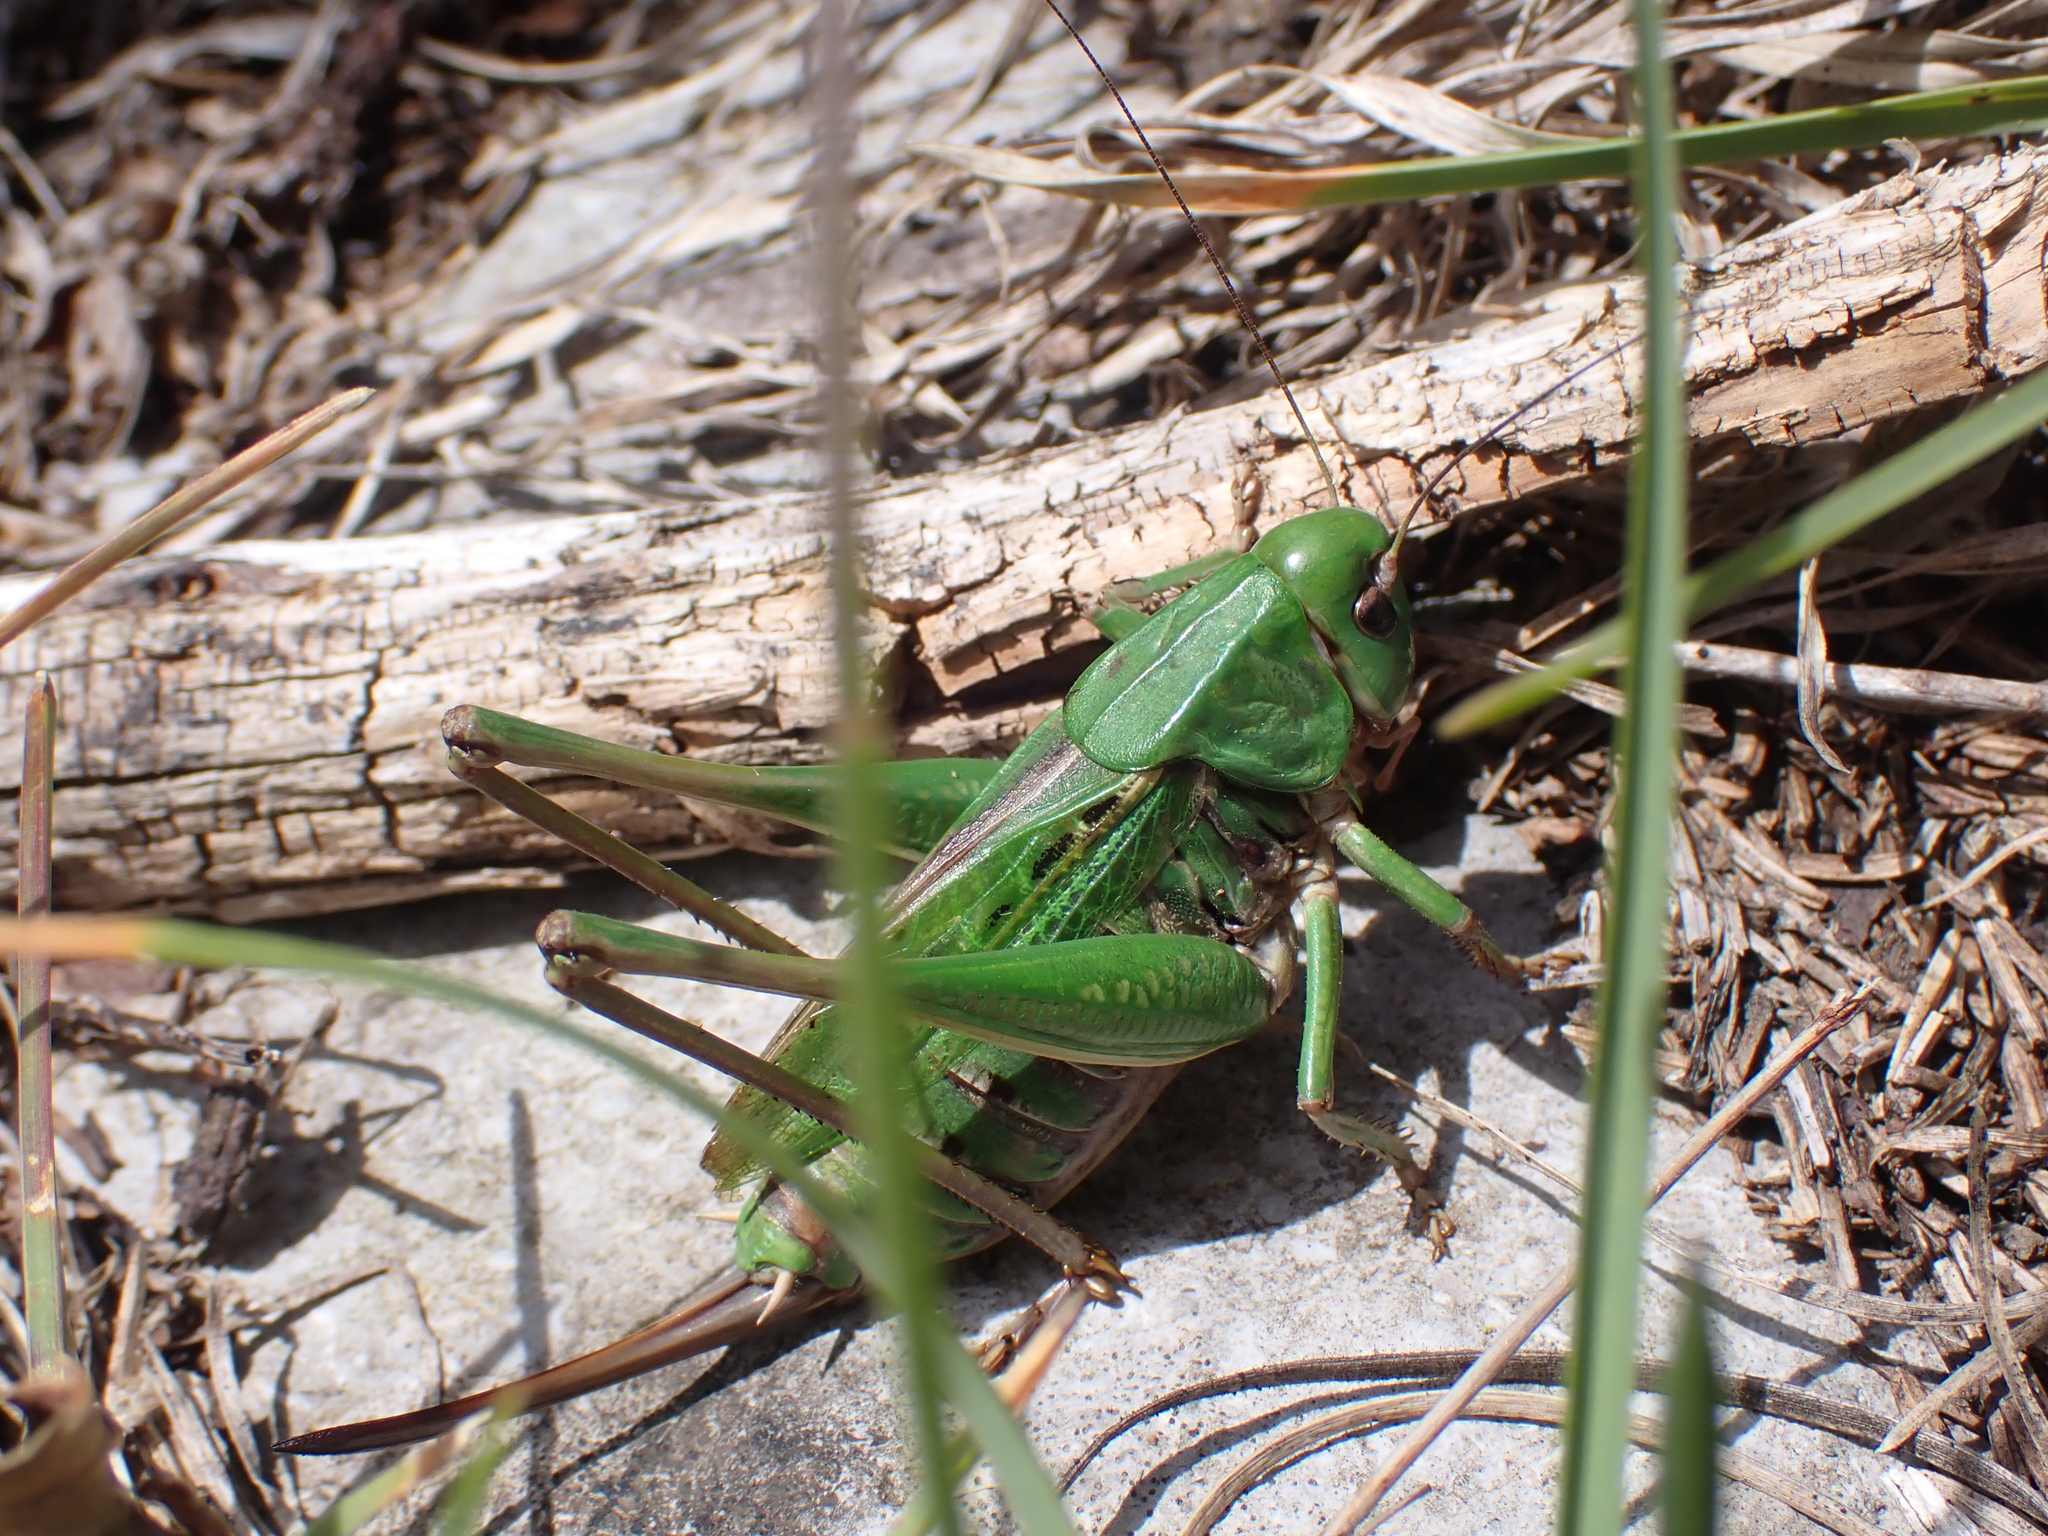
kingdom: Animalia
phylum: Arthropoda
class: Insecta
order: Orthoptera
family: Tettigoniidae
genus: Decticus
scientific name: Decticus verrucivorus
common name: Wart-biter
